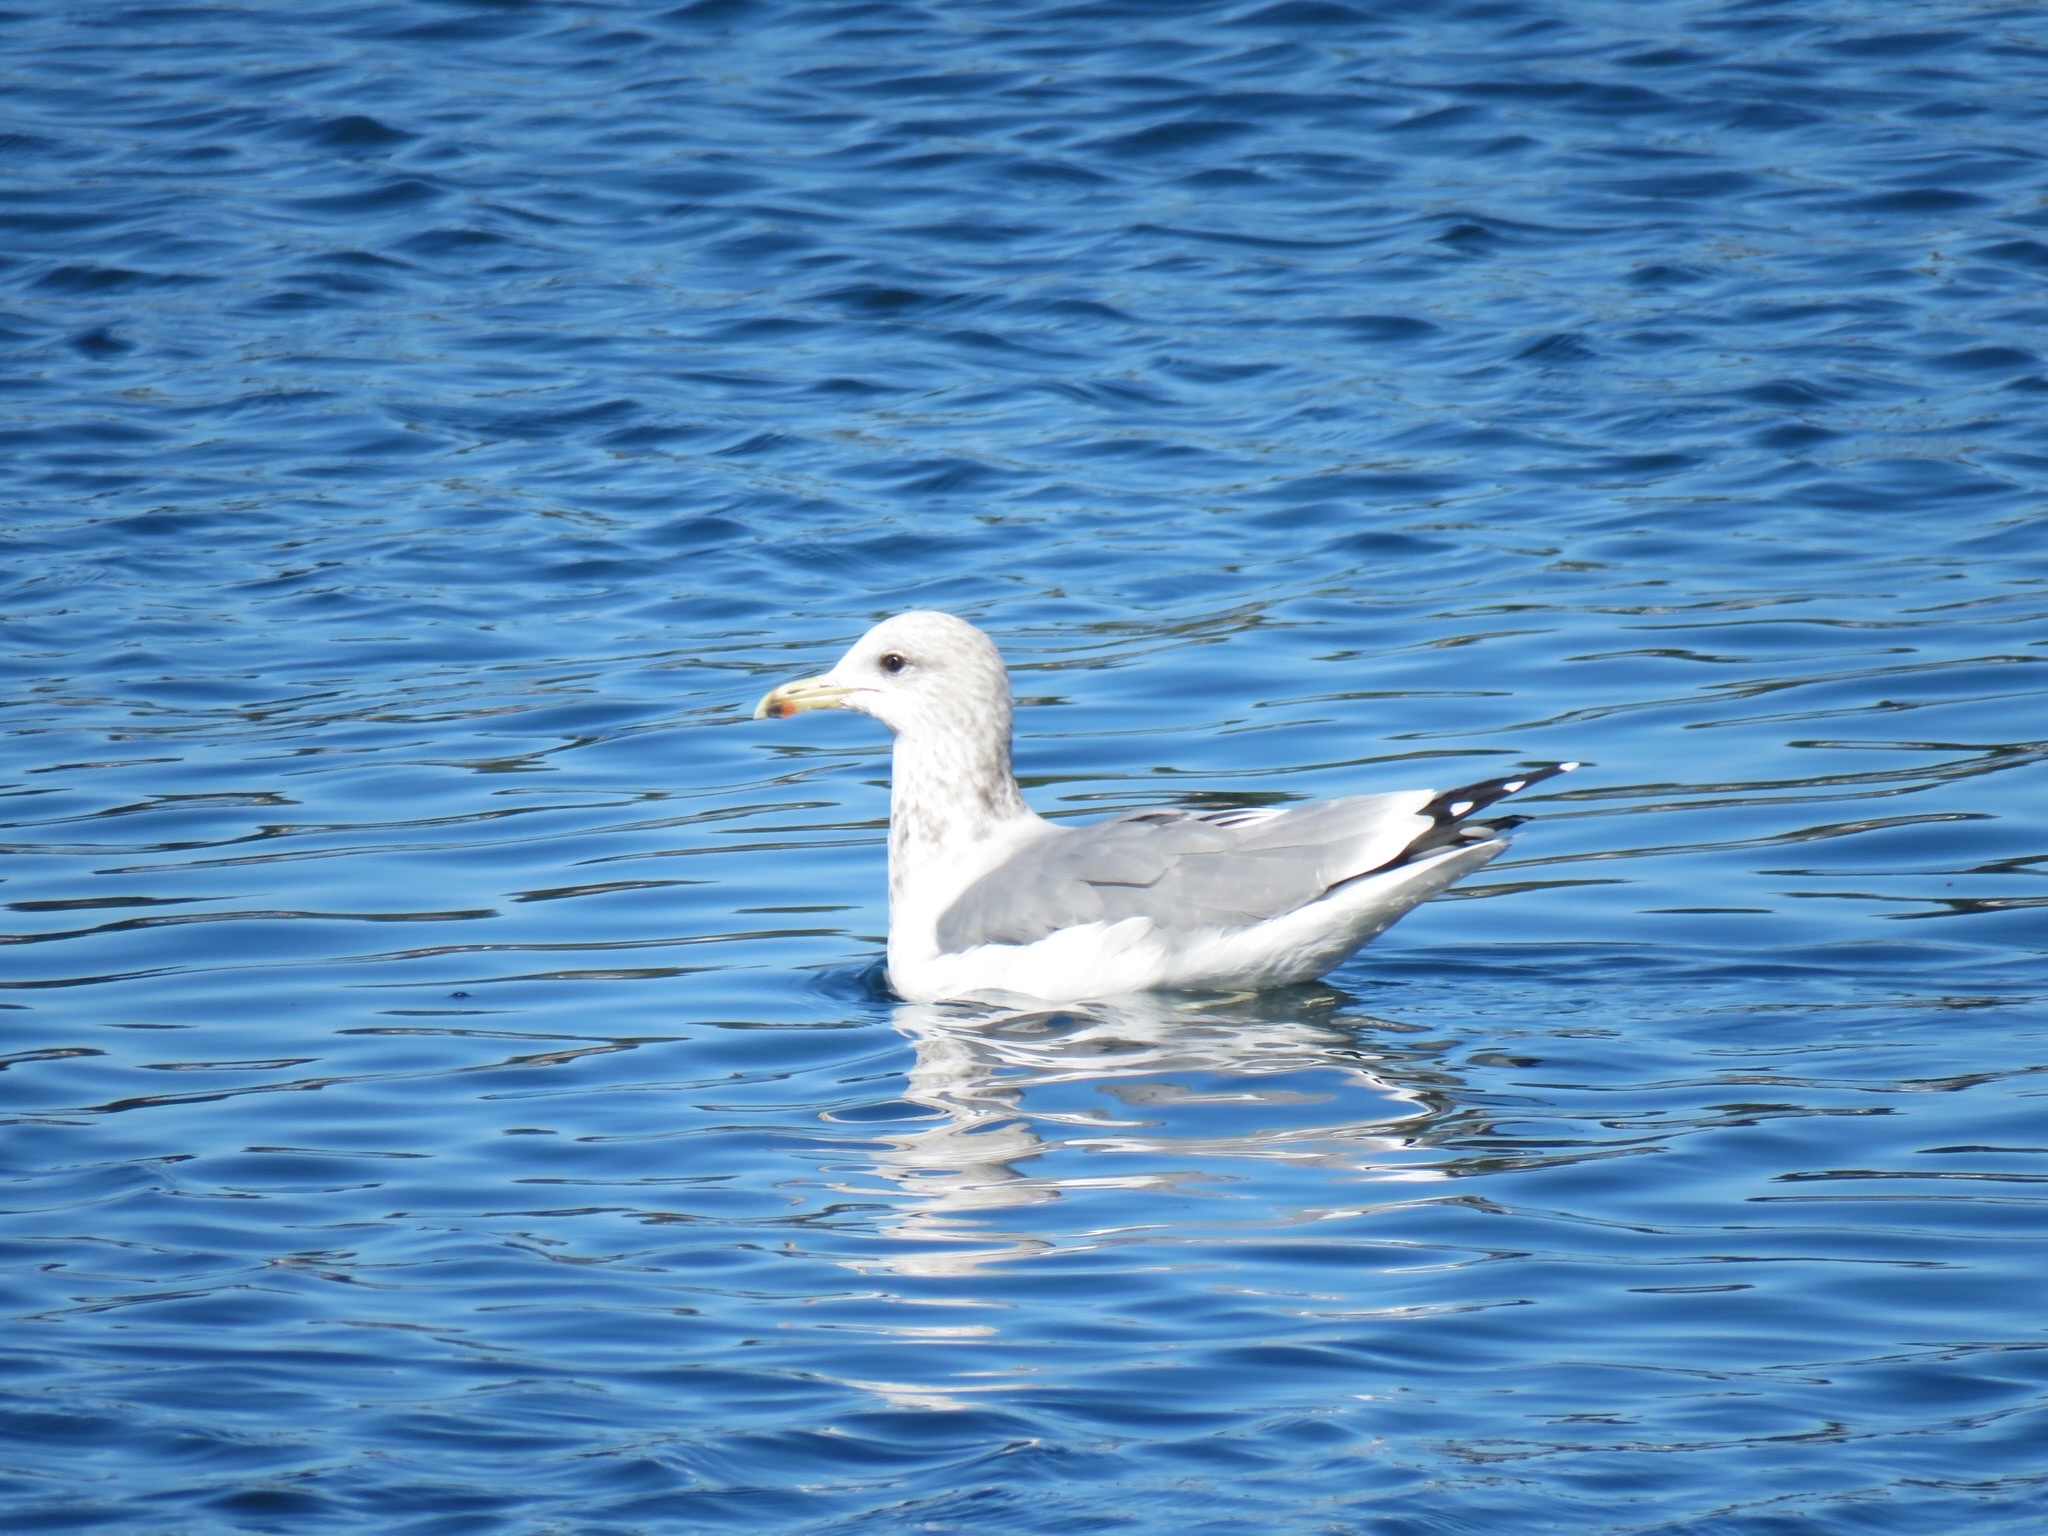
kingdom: Animalia
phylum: Chordata
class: Aves
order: Charadriiformes
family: Laridae
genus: Larus
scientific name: Larus californicus
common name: California gull
